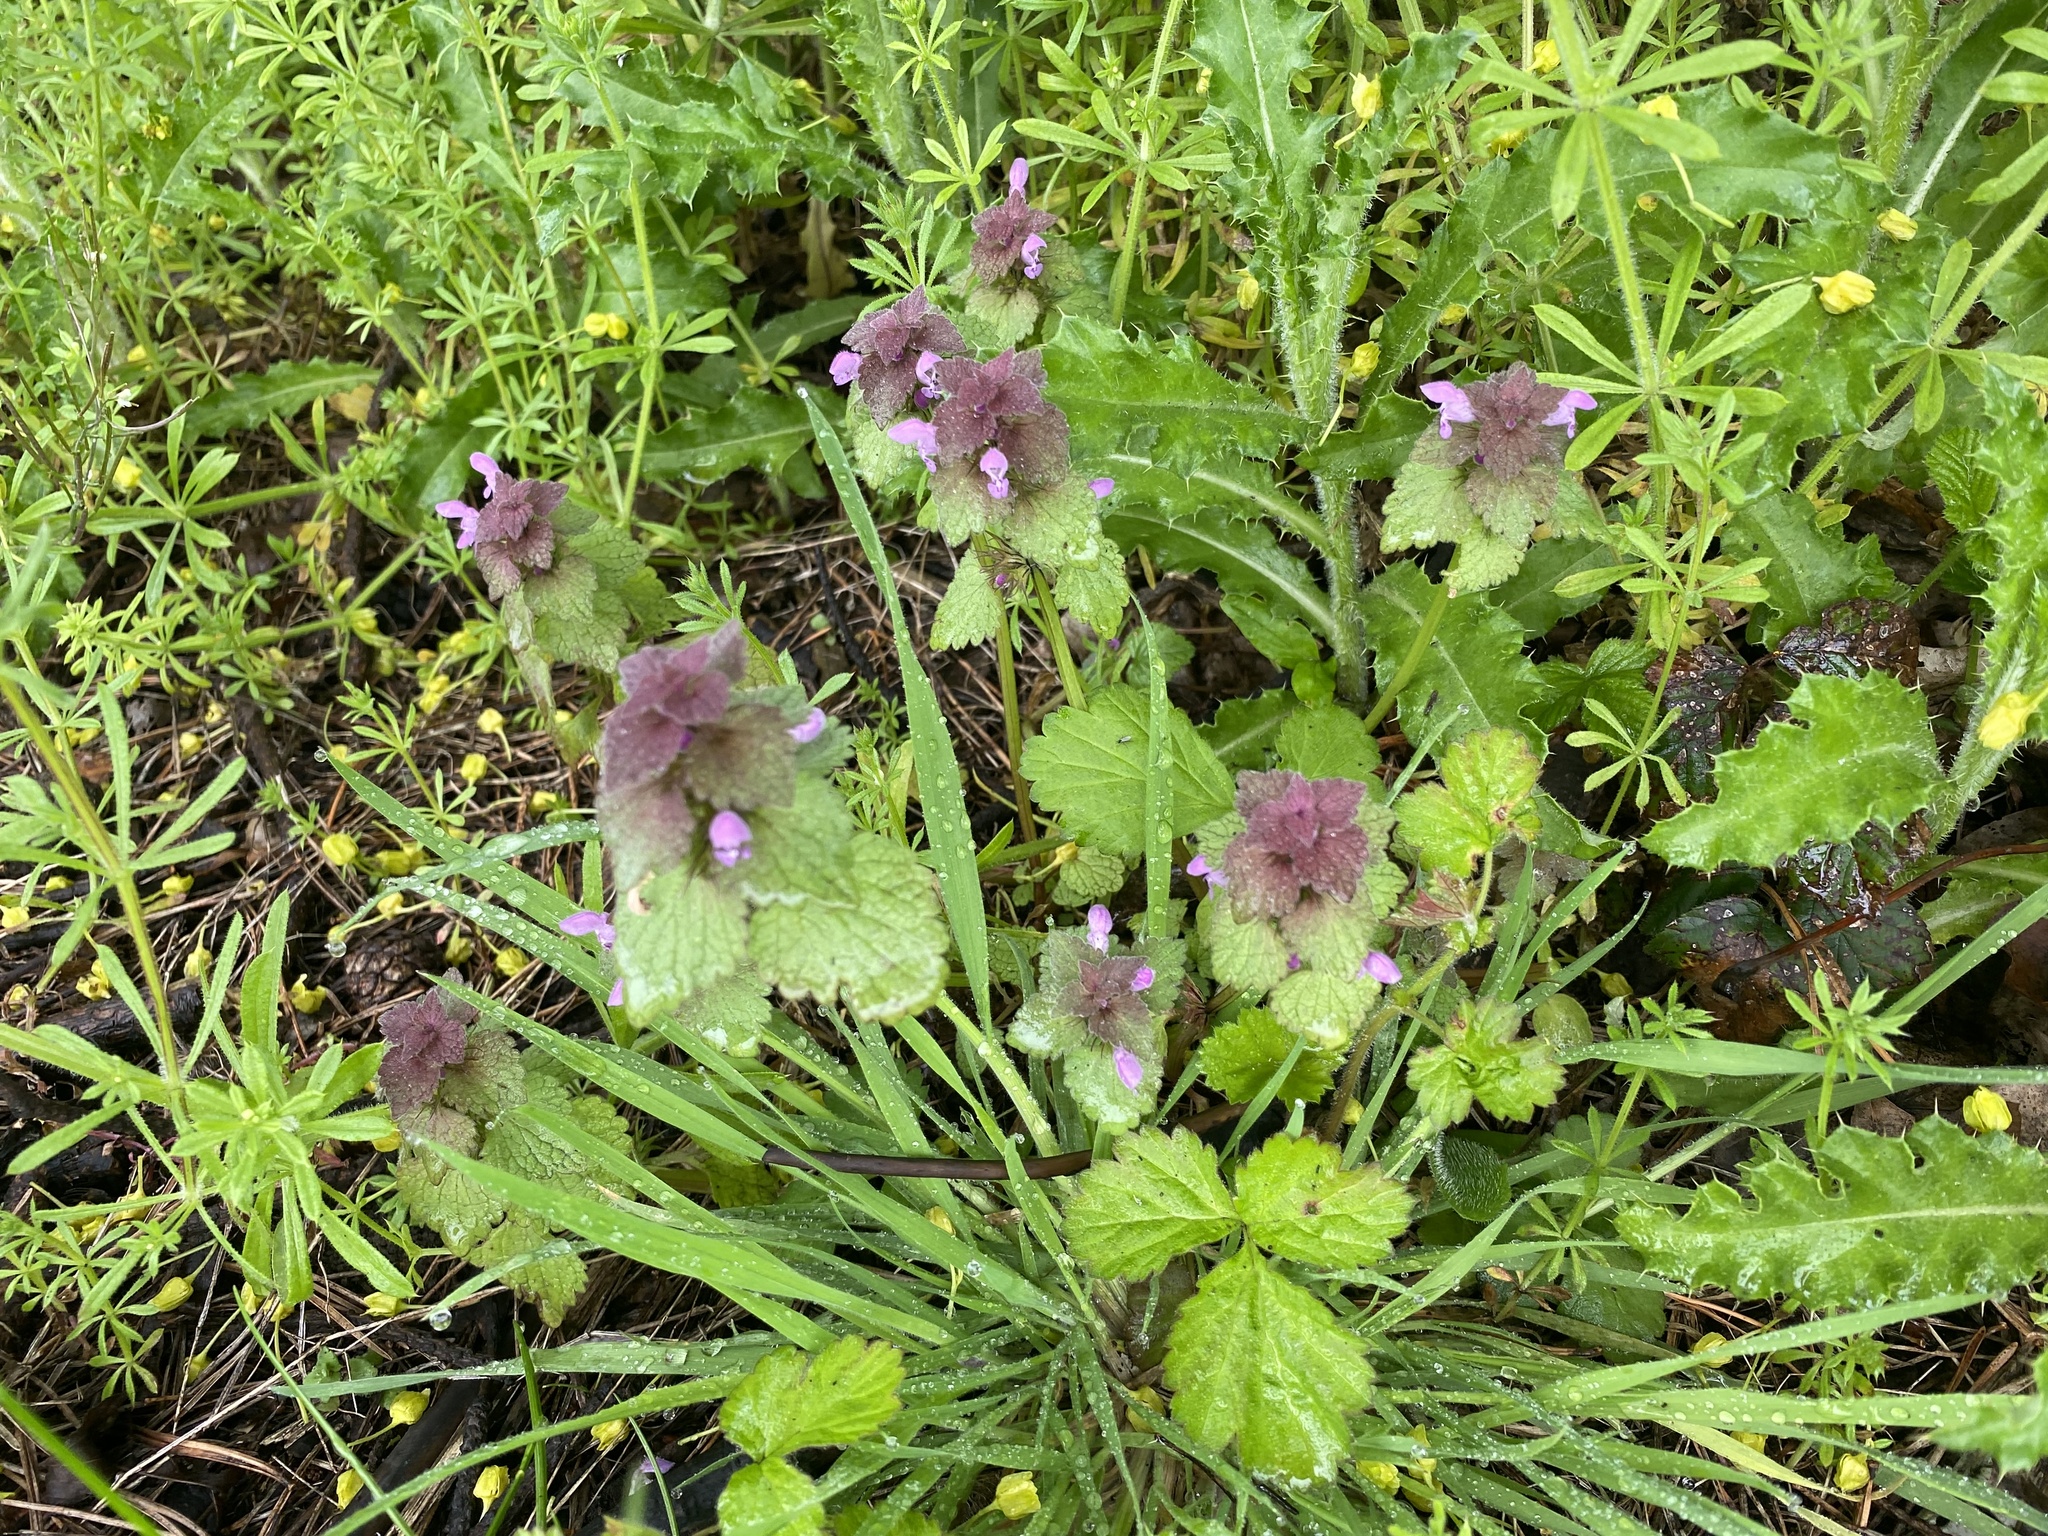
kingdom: Plantae
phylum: Tracheophyta
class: Magnoliopsida
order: Lamiales
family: Lamiaceae
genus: Lamium
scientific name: Lamium purpureum
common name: Red dead-nettle
